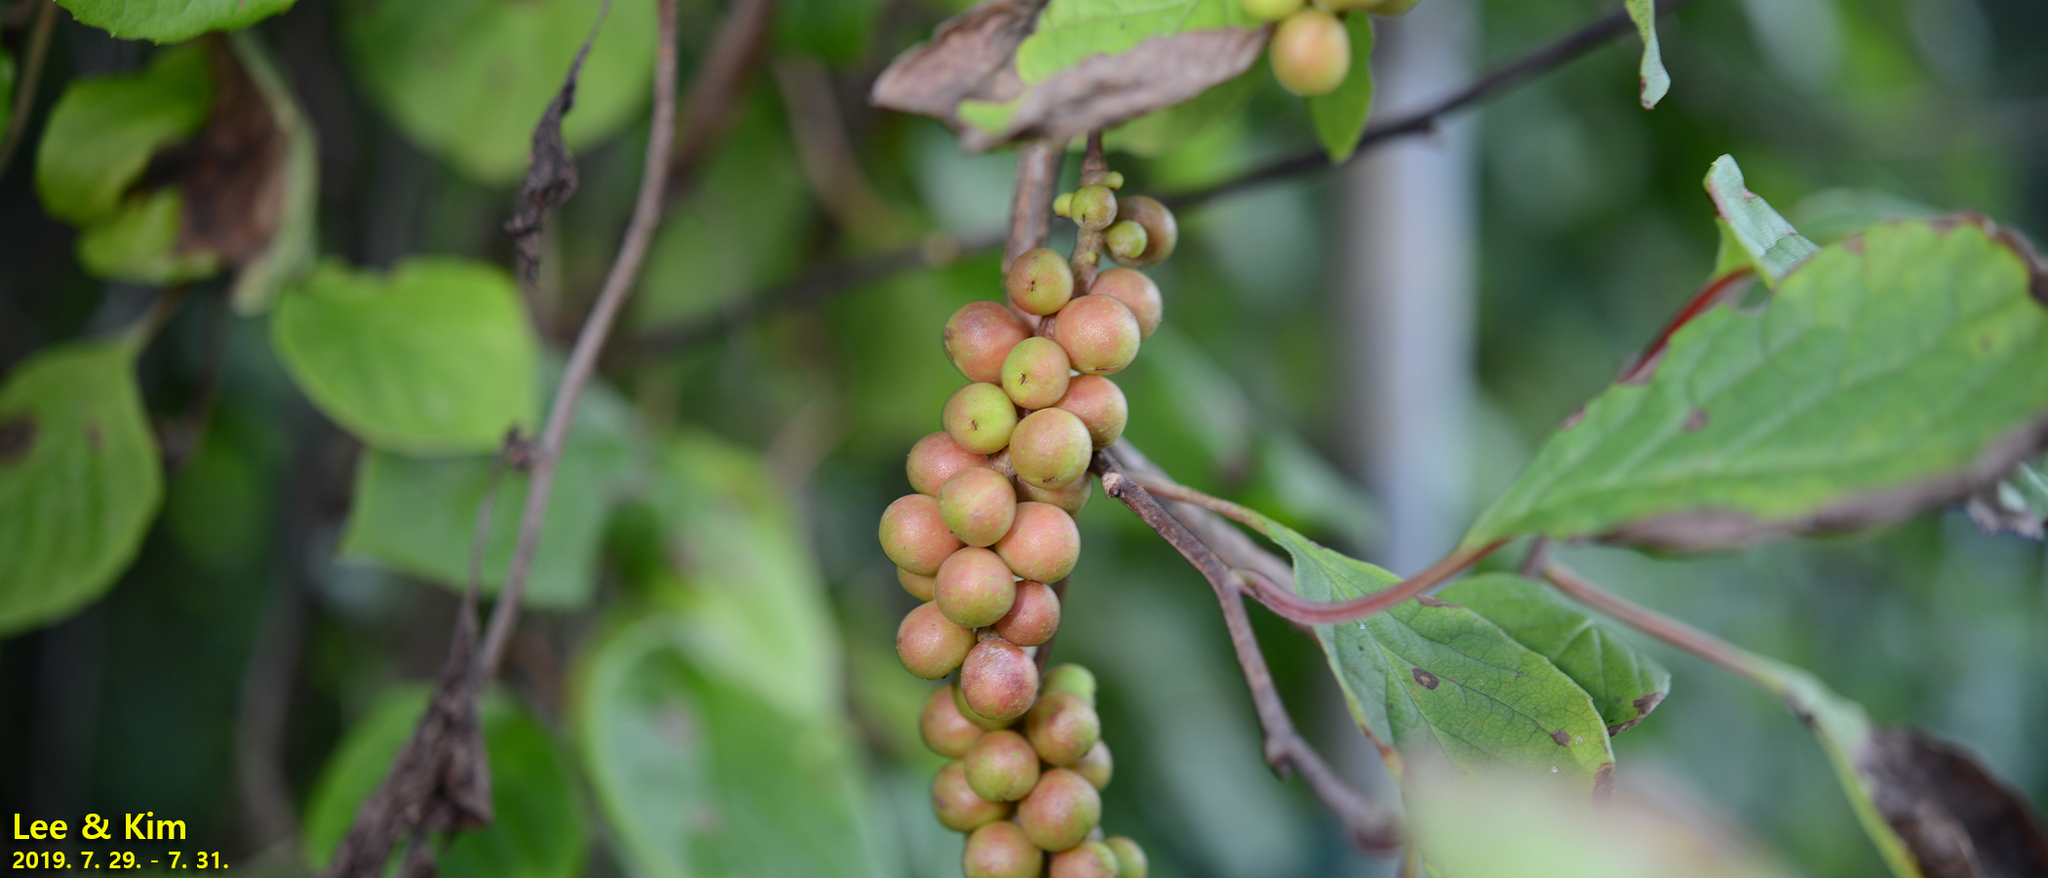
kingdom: Plantae
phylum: Tracheophyta
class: Magnoliopsida
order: Austrobaileyales
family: Schisandraceae
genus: Schisandra
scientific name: Schisandra chinensis
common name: Magnolia-vine
